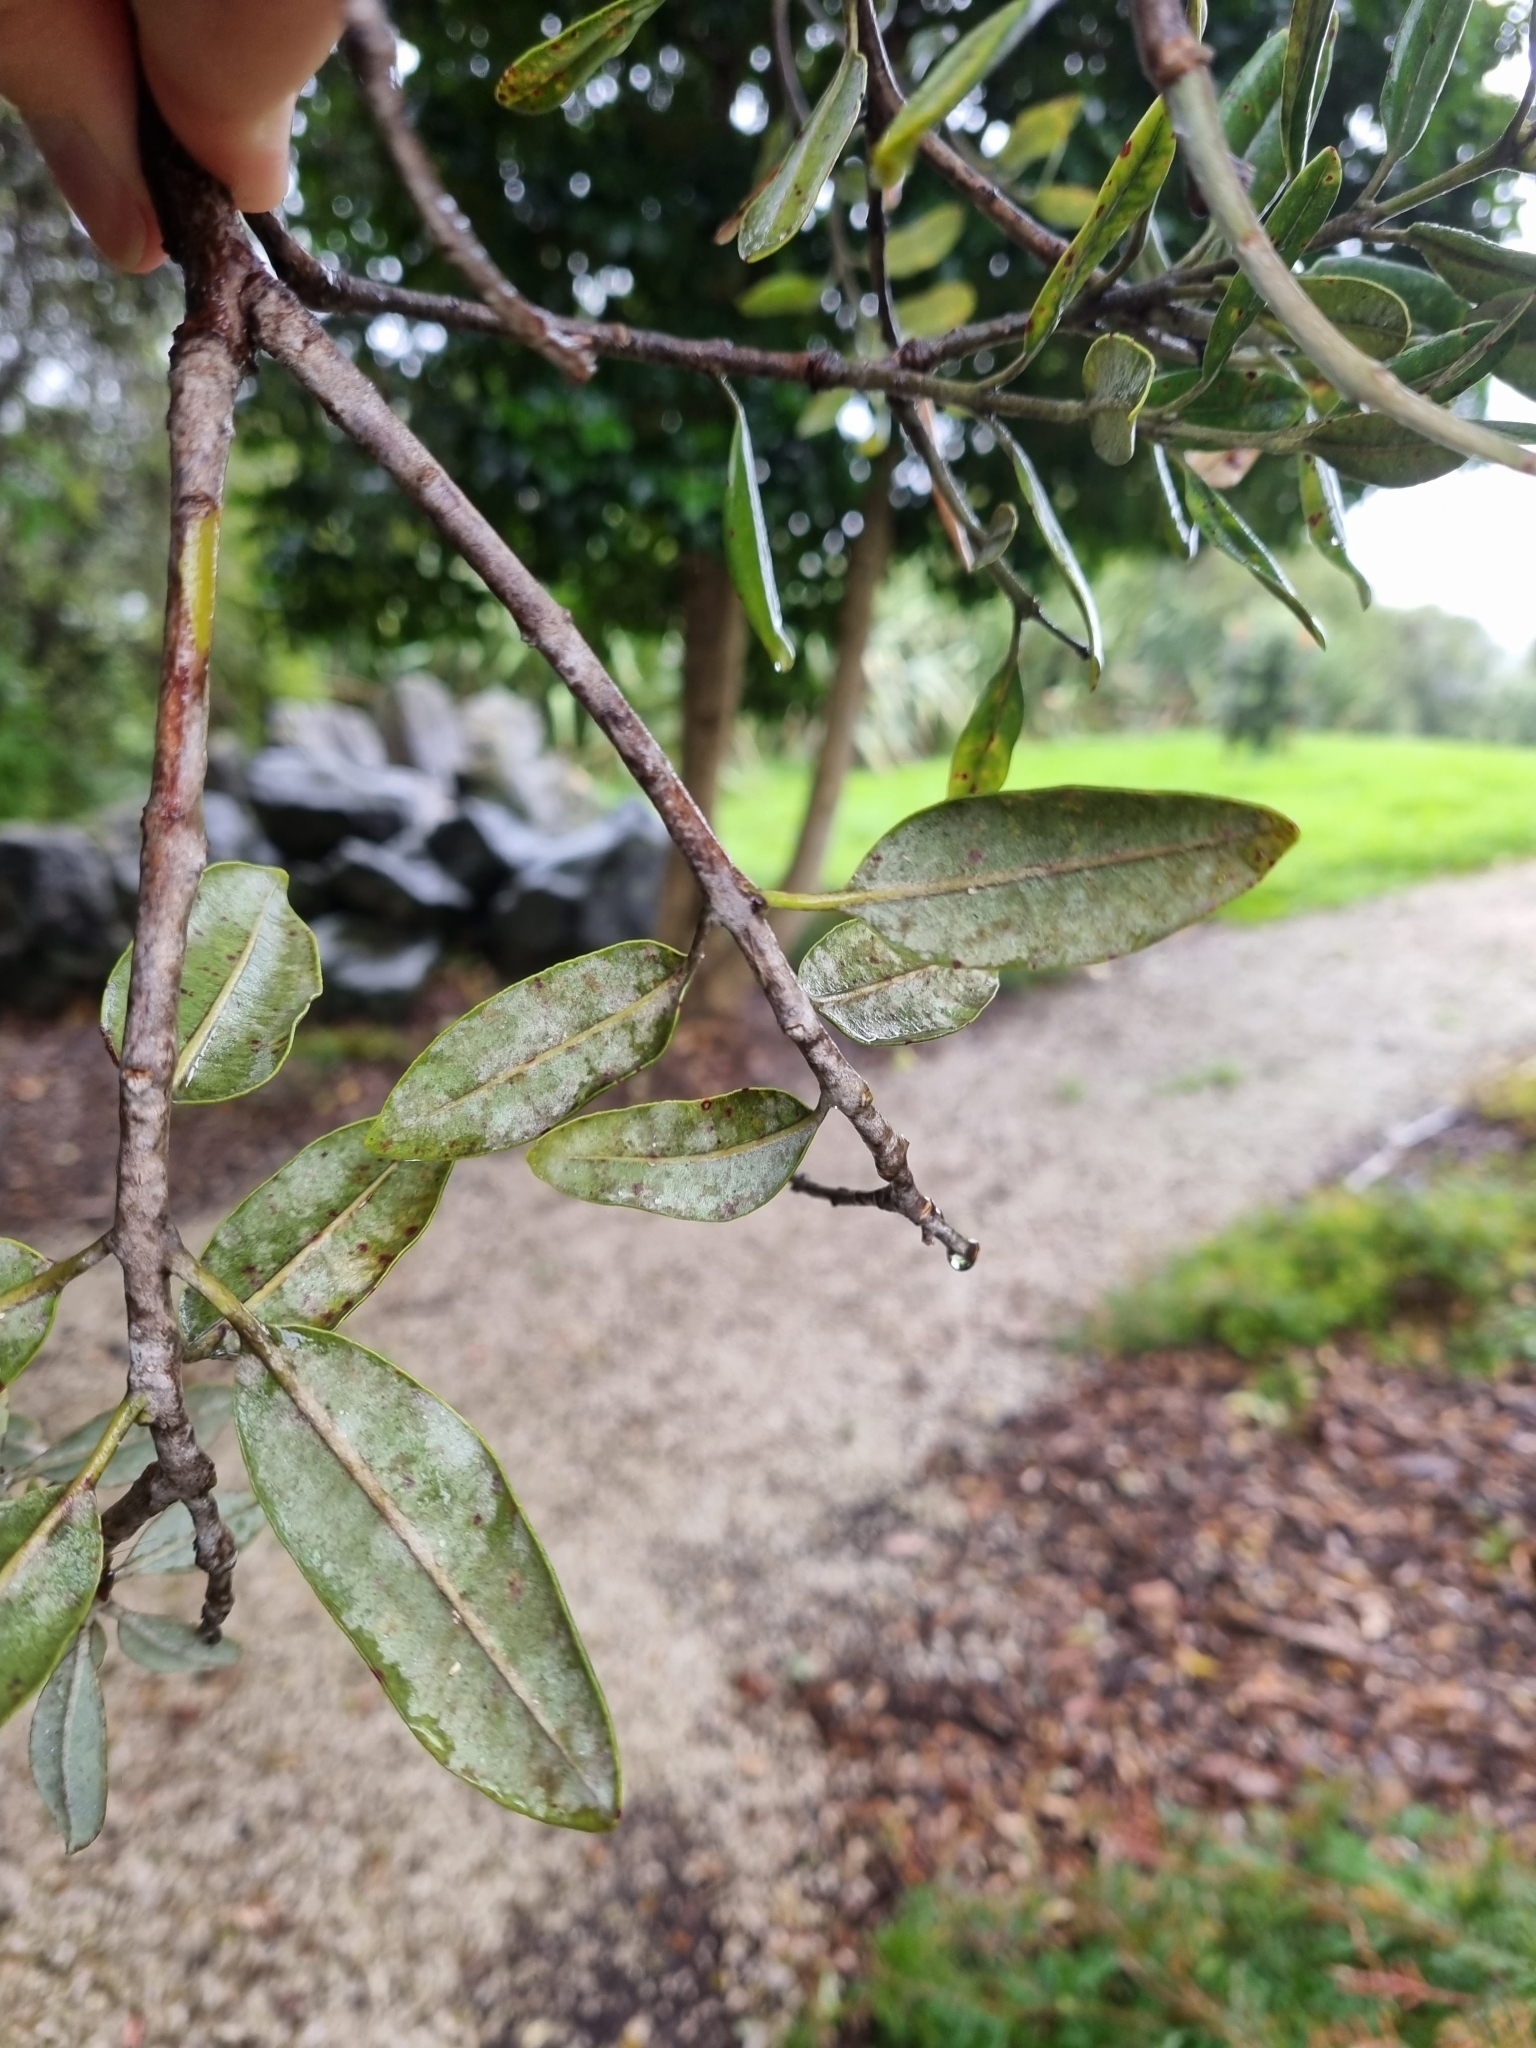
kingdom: Plantae
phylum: Tracheophyta
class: Magnoliopsida
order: Myrtales
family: Myrtaceae
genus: Metrosideros
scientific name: Metrosideros excelsa
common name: New zealand christmastree
